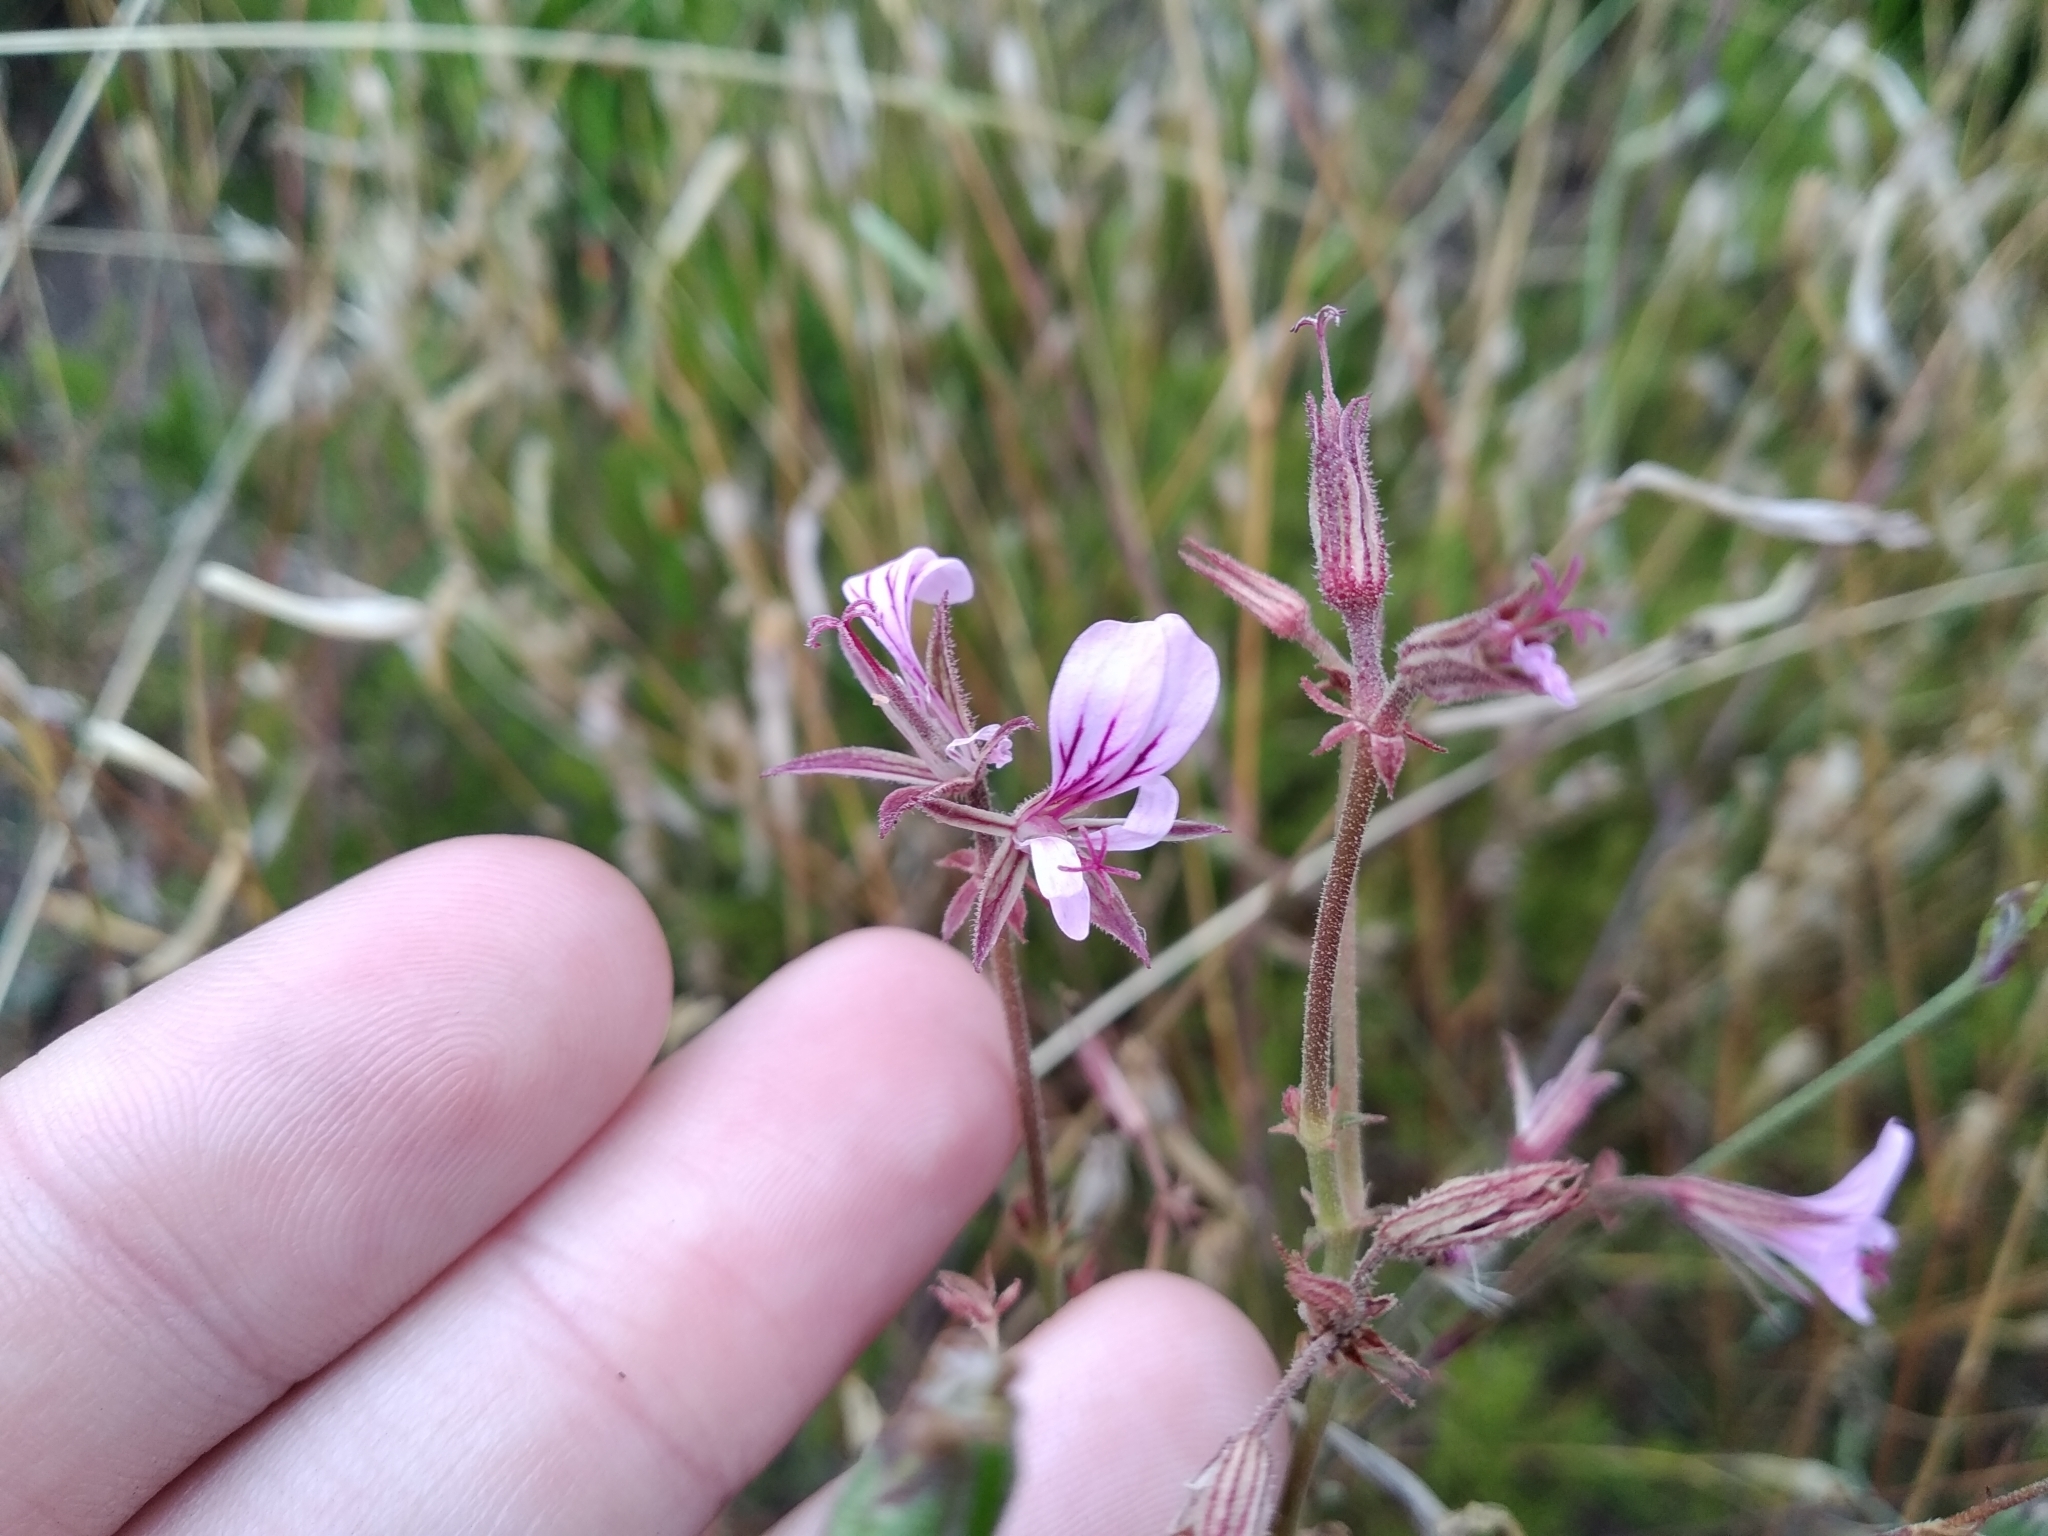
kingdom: Plantae
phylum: Tracheophyta
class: Magnoliopsida
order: Geraniales
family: Geraniaceae
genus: Pelargonium
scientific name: Pelargonium myrrhifolium
